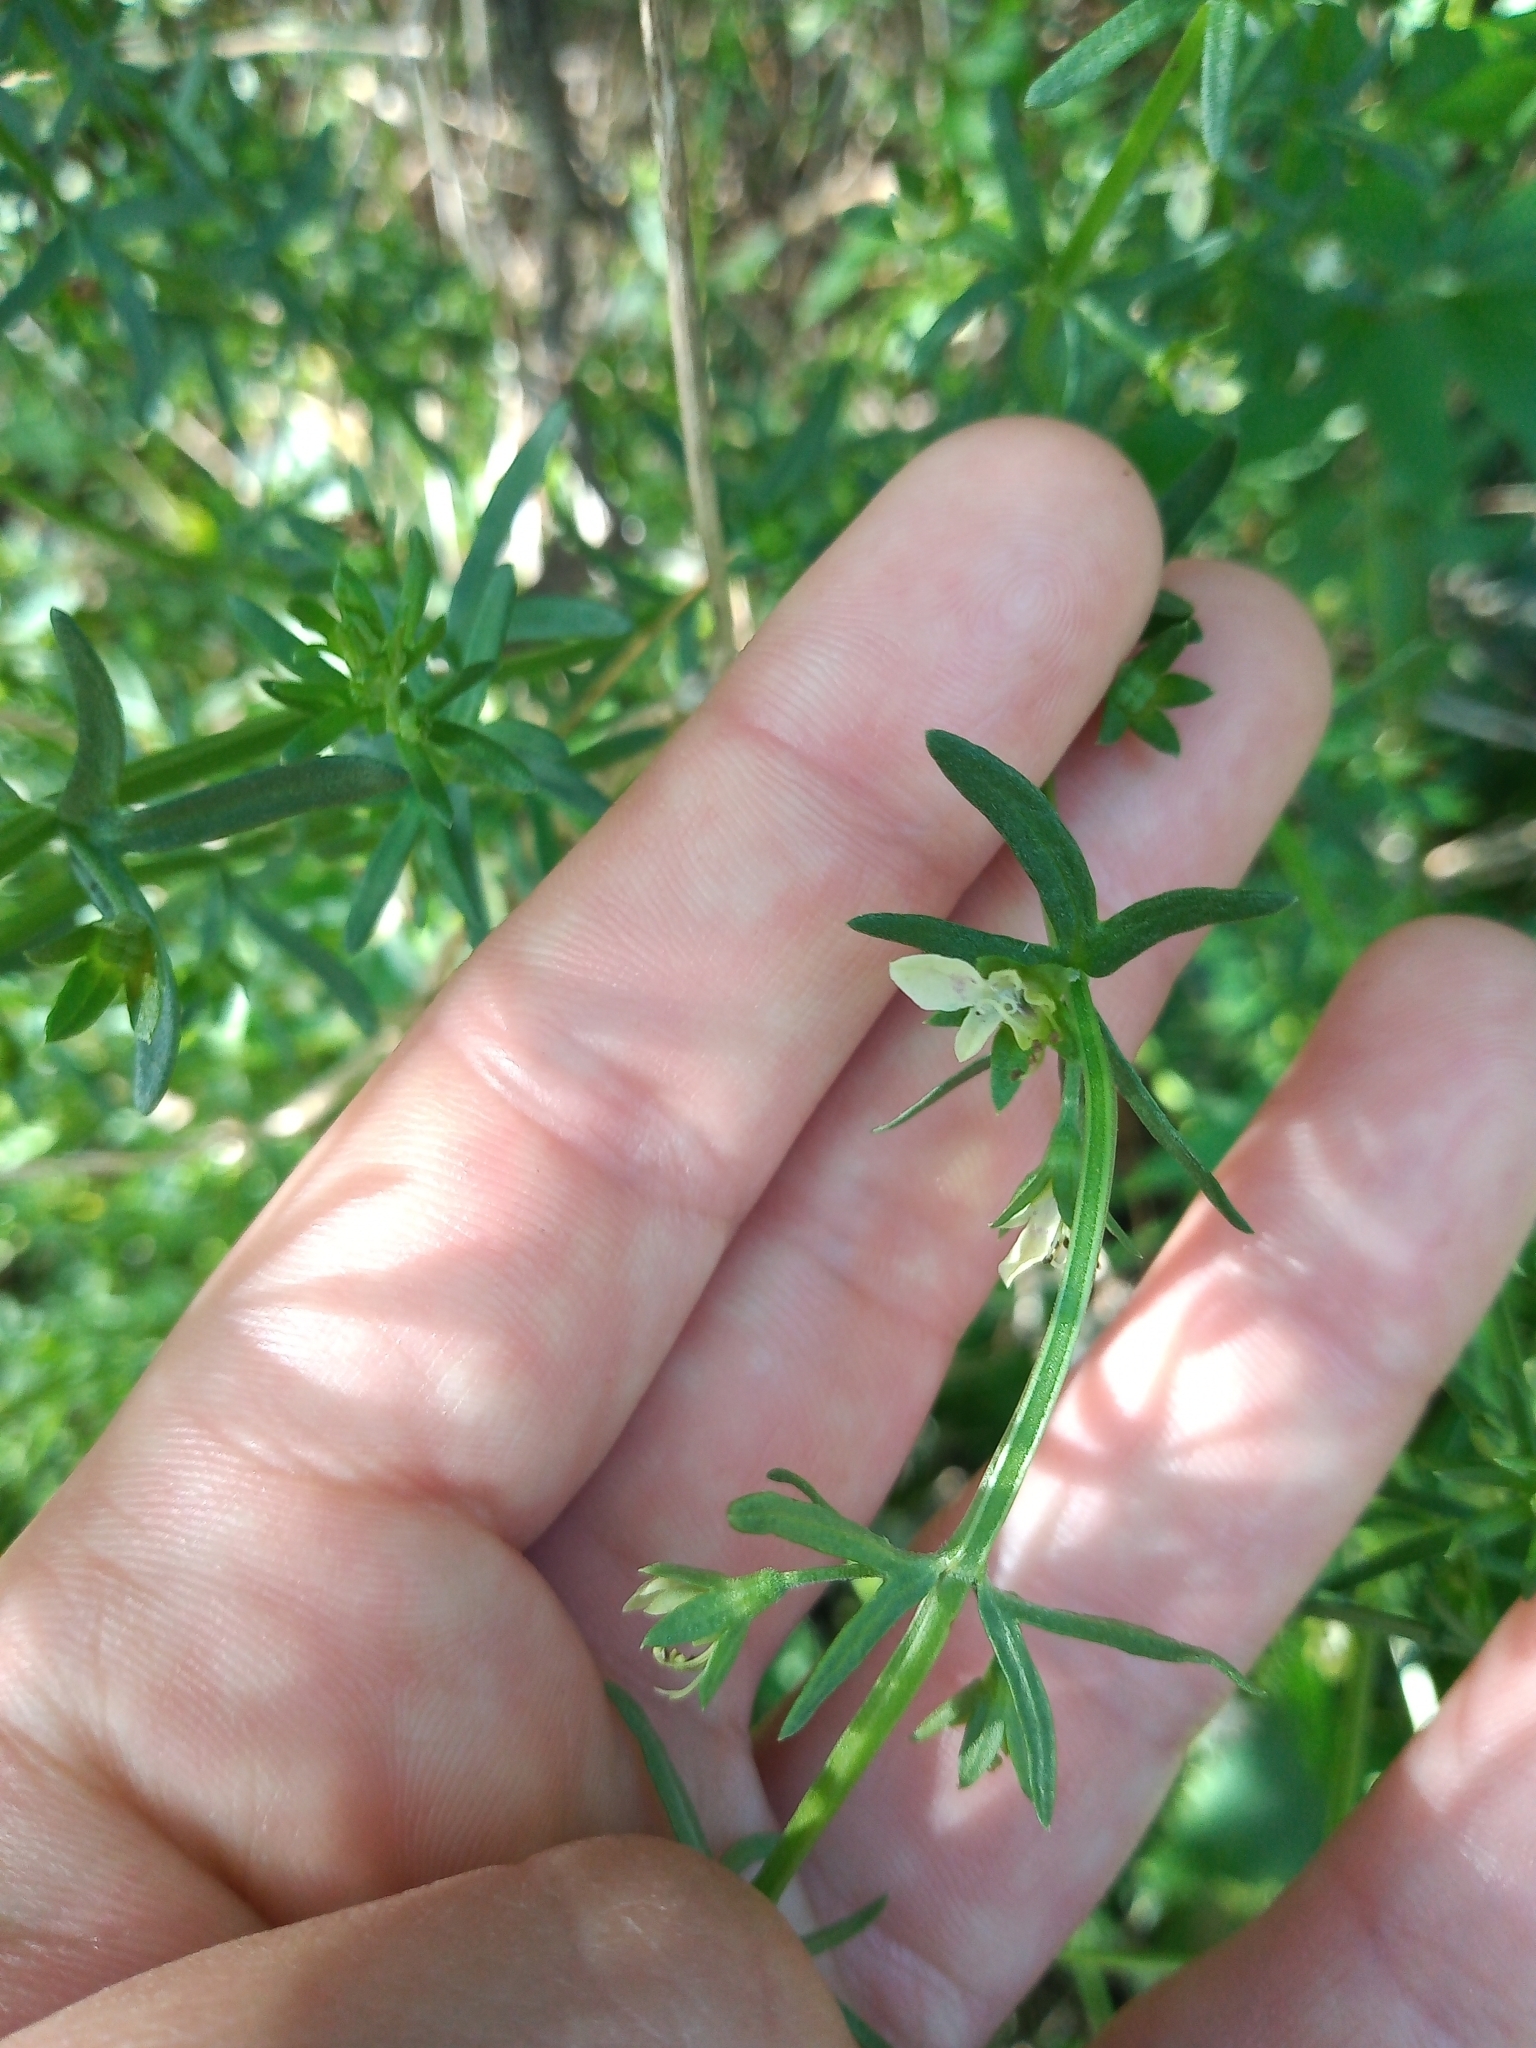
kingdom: Plantae
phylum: Tracheophyta
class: Magnoliopsida
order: Lamiales
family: Lamiaceae
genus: Teucrium
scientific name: Teucrium cubense
